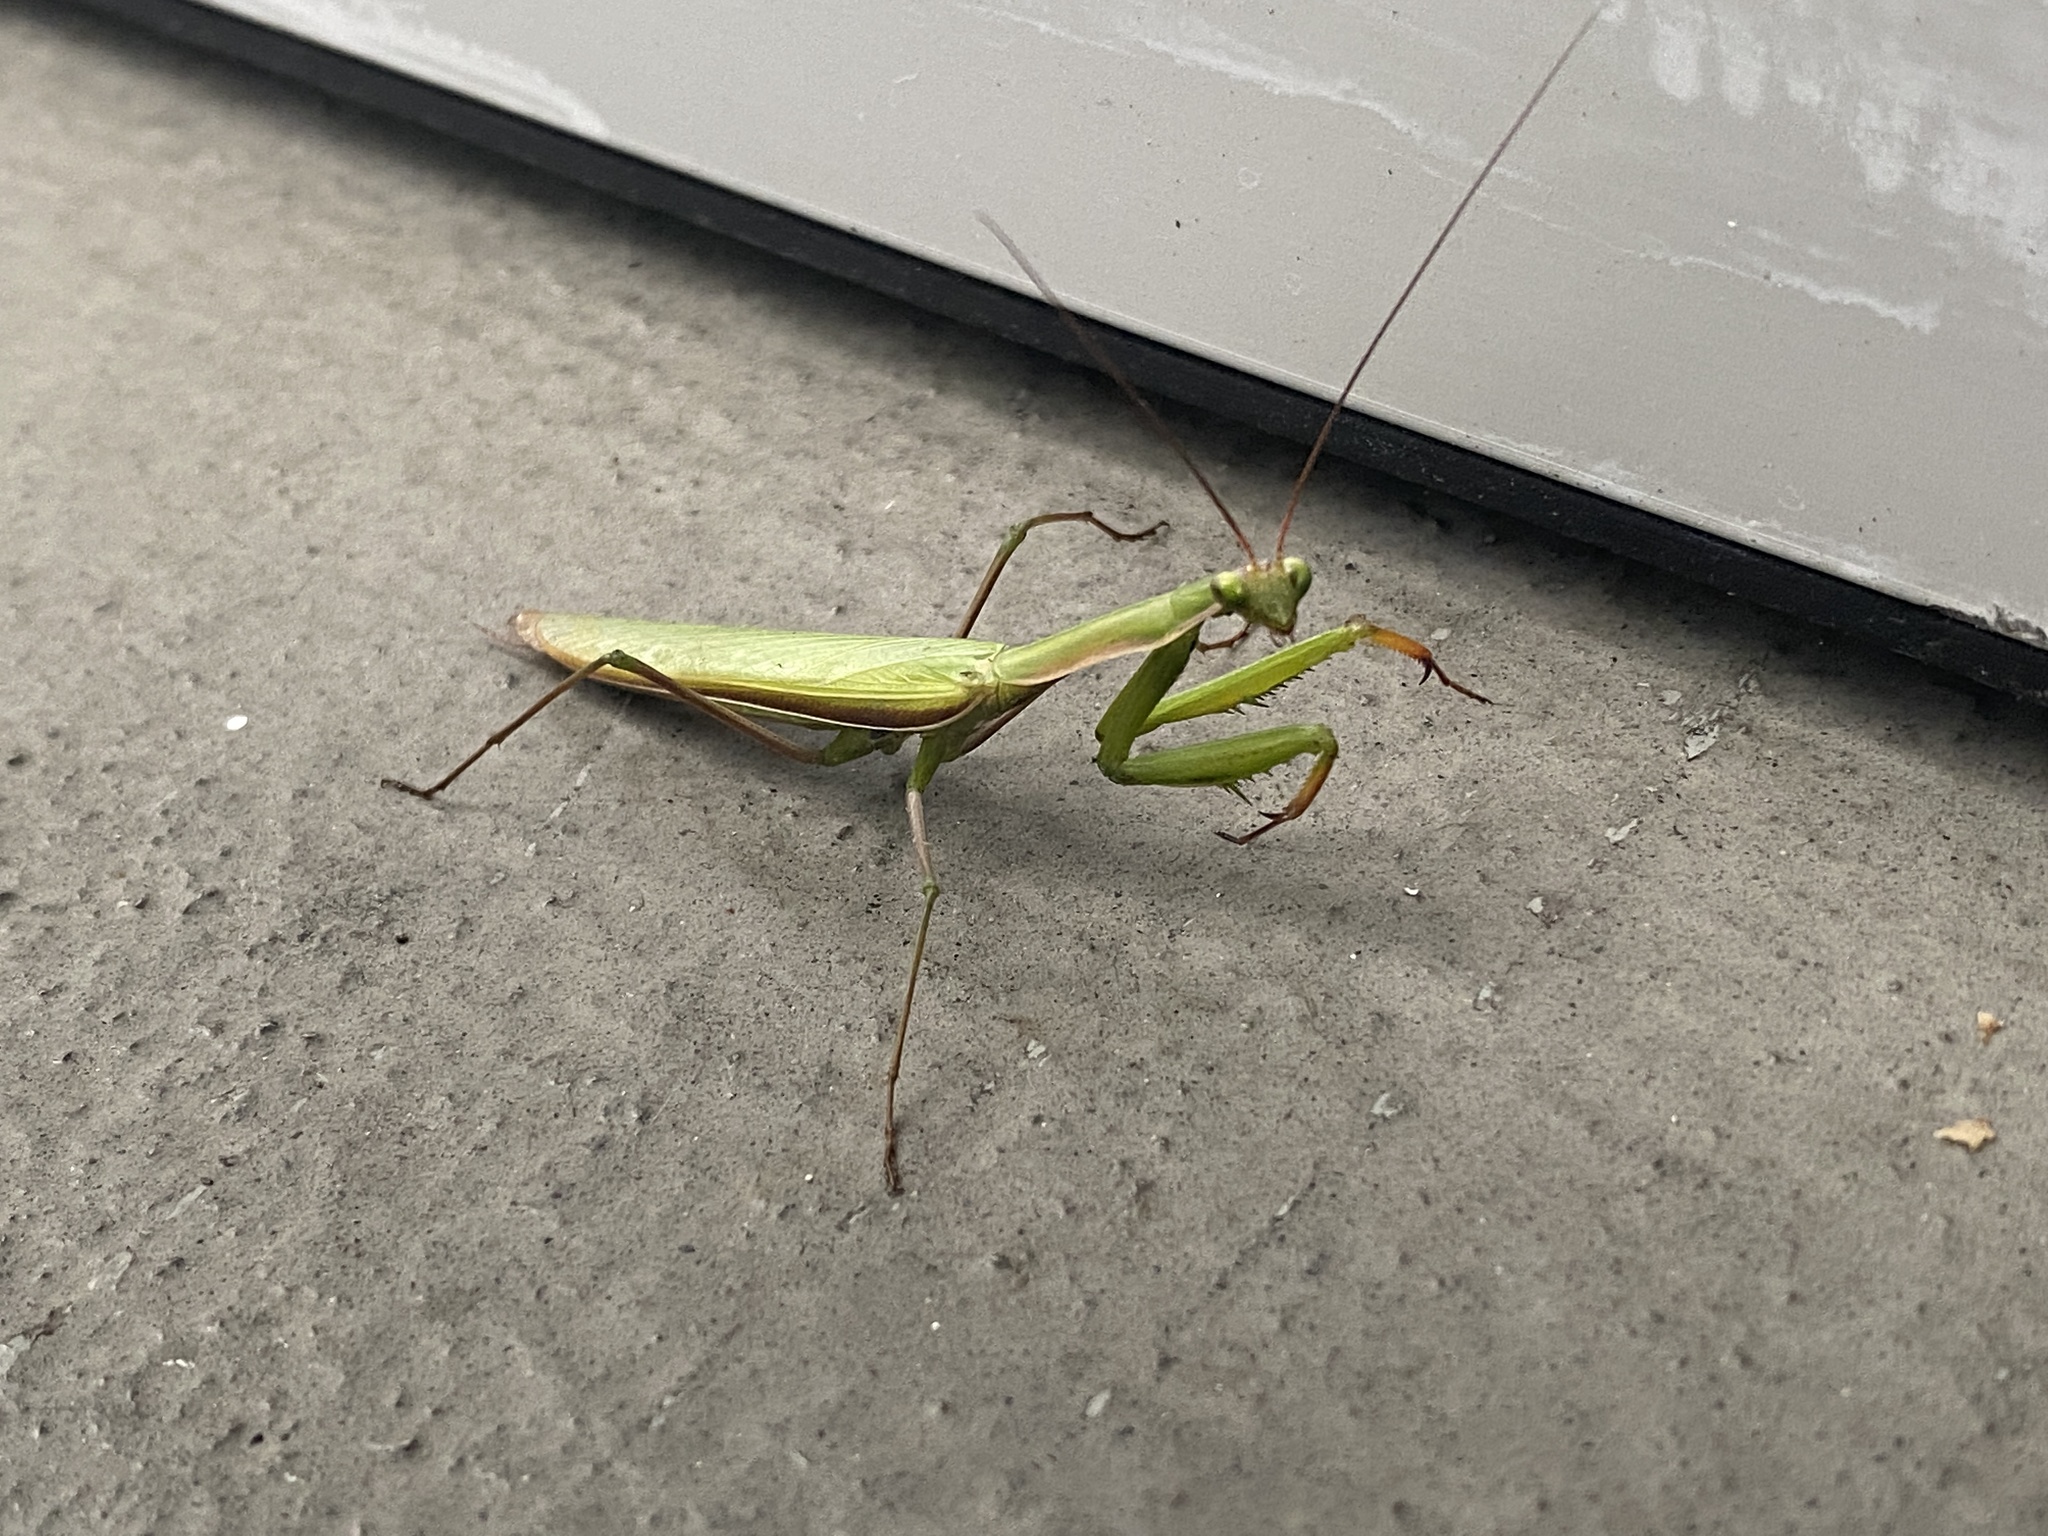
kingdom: Animalia
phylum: Arthropoda
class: Insecta
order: Mantodea
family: Mantidae
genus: Mantis
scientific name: Mantis religiosa
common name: Praying mantis
